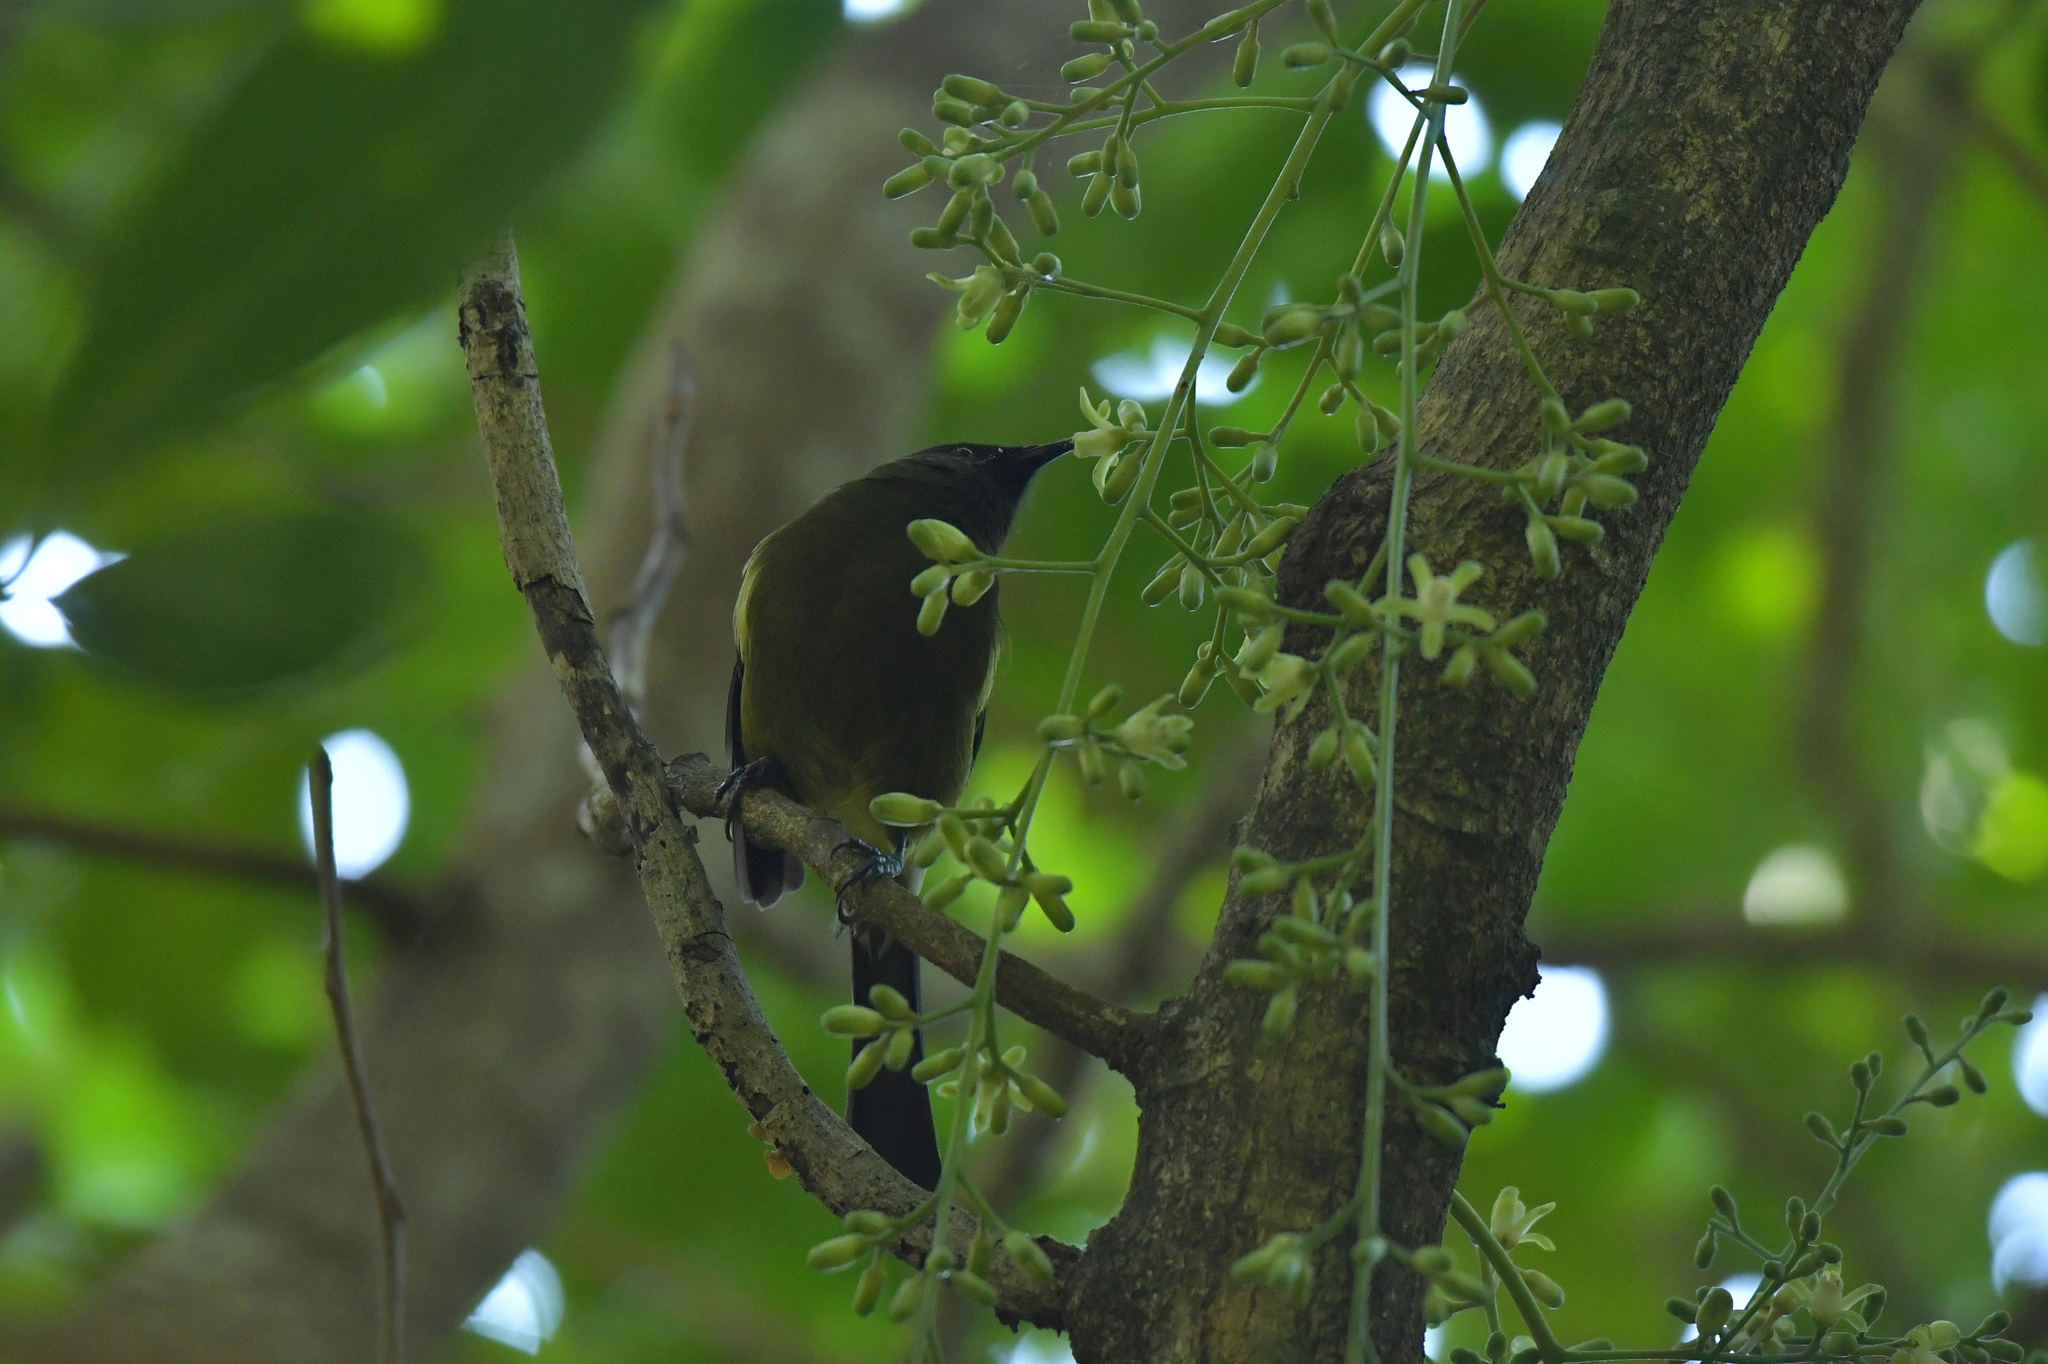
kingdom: Animalia
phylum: Chordata
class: Aves
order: Passeriformes
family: Meliphagidae
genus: Anthornis
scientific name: Anthornis melanura
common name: New zealand bellbird
